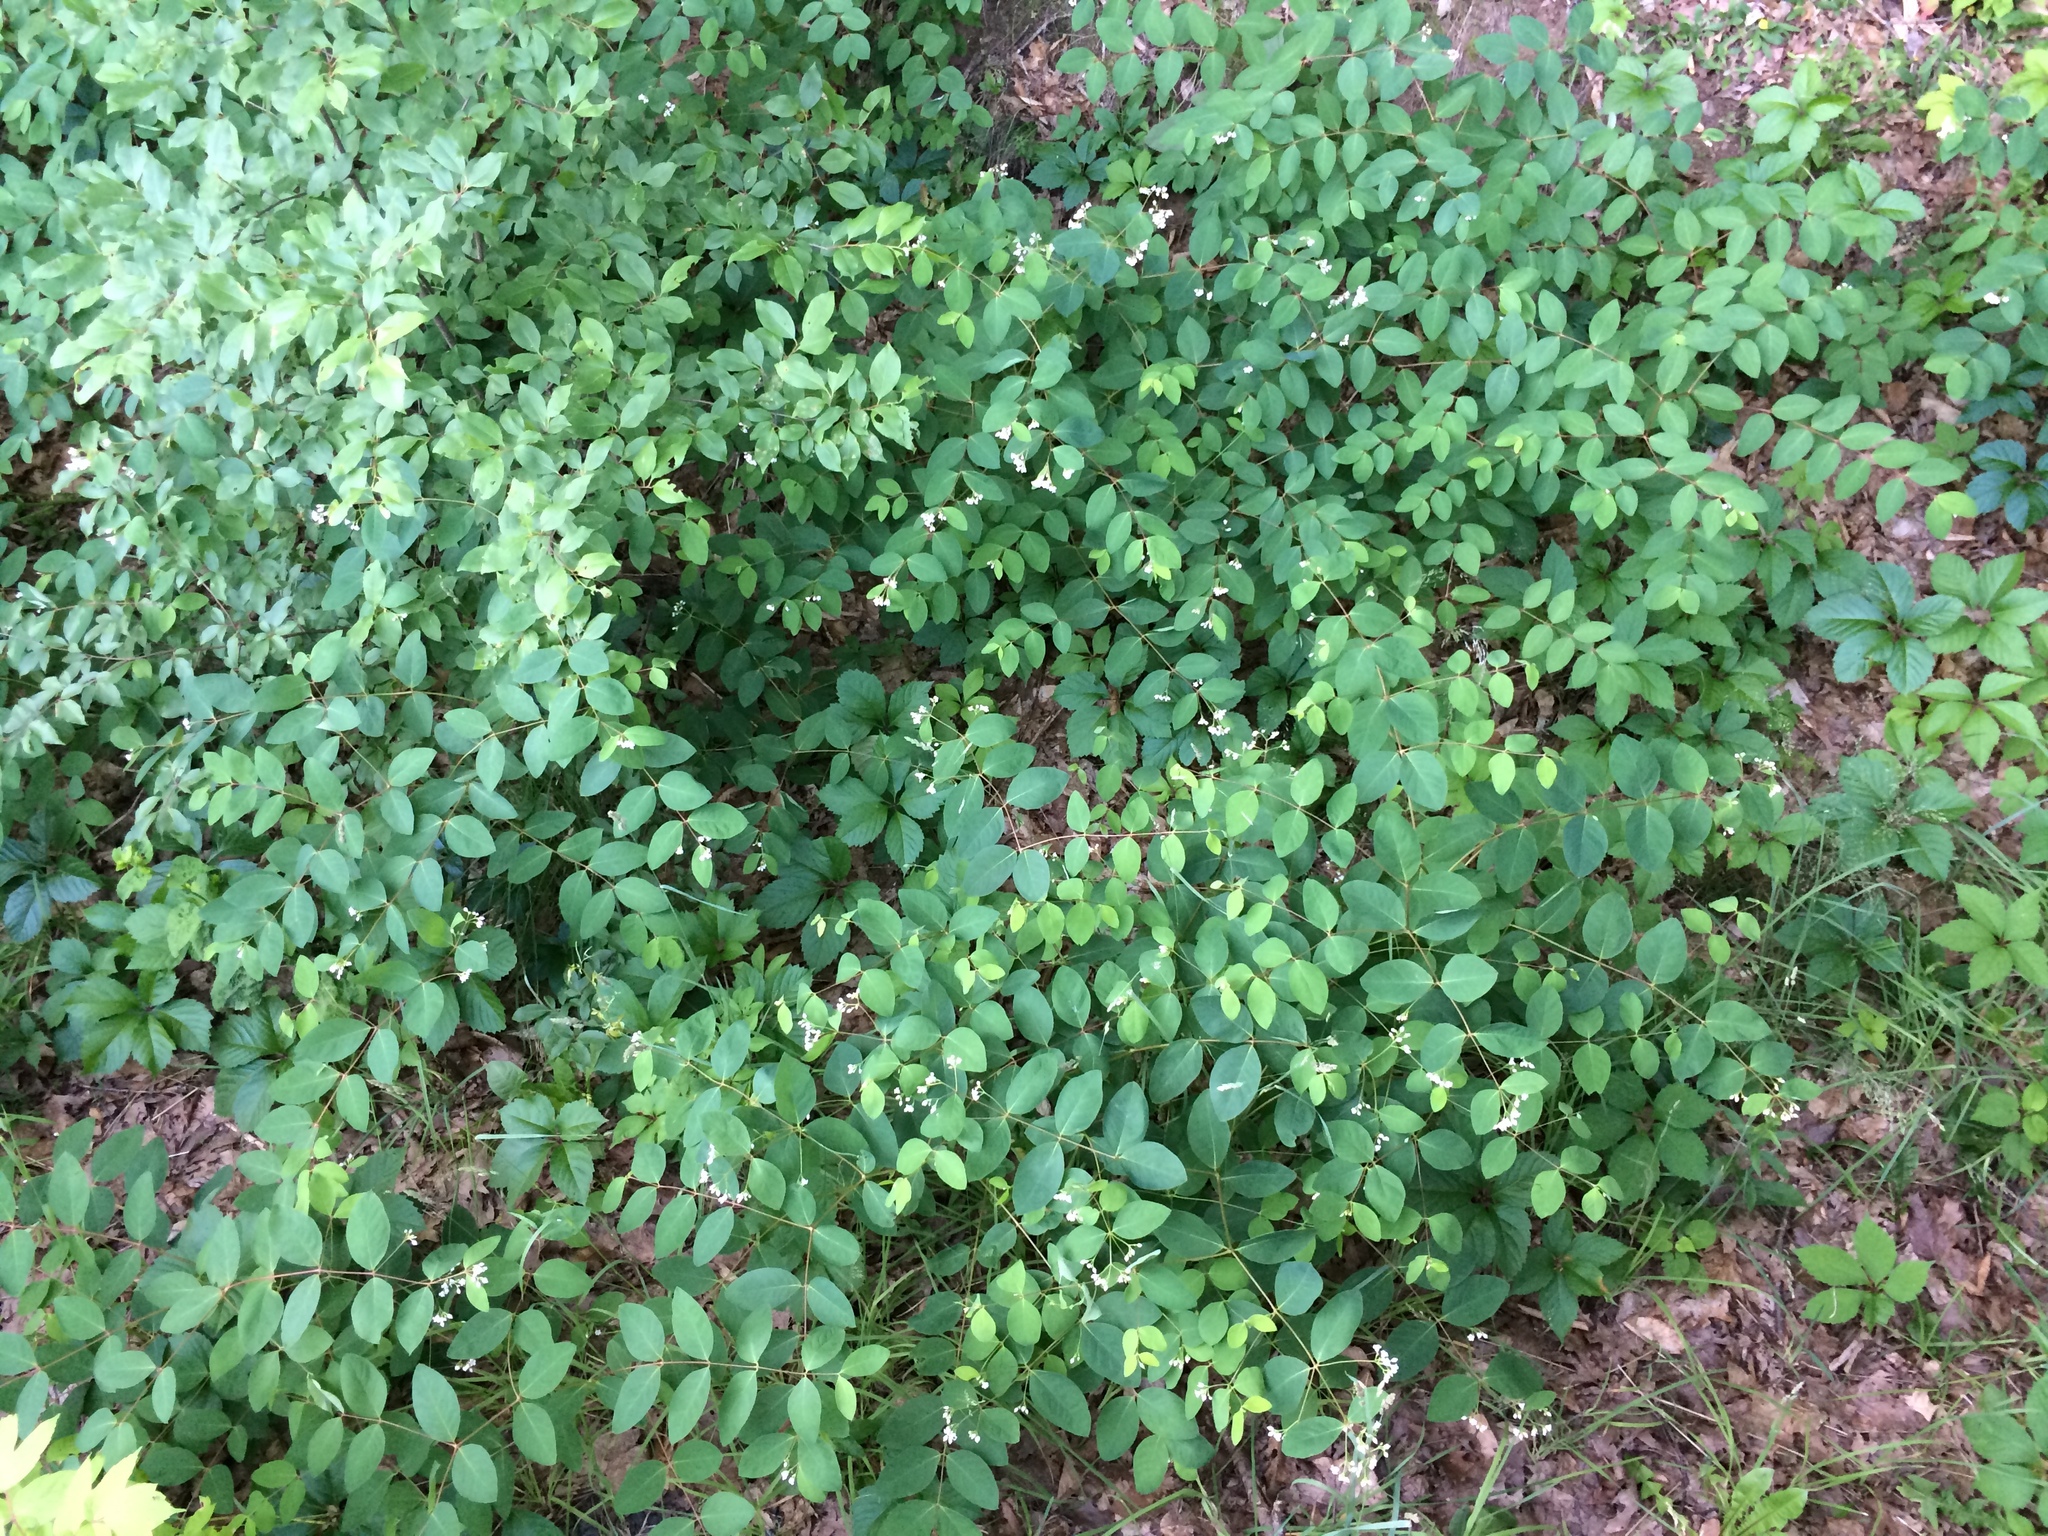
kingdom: Plantae
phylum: Tracheophyta
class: Magnoliopsida
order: Gentianales
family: Apocynaceae
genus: Apocynum
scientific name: Apocynum androsaemifolium
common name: Spreading dogbane
